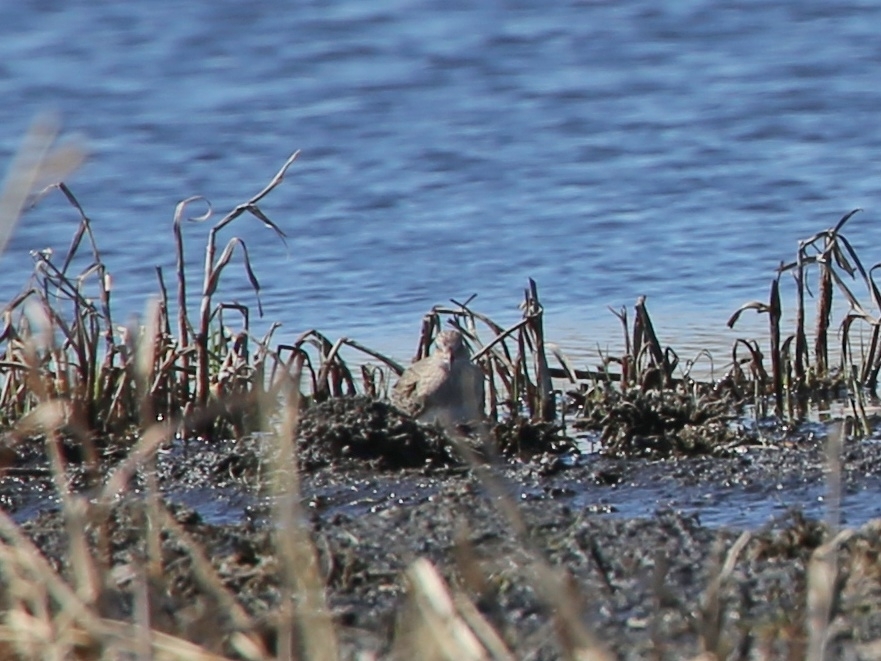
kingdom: Animalia
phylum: Chordata
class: Aves
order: Charadriiformes
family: Scolopacidae
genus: Calidris
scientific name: Calidris temminckii
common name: Temminck's stint
